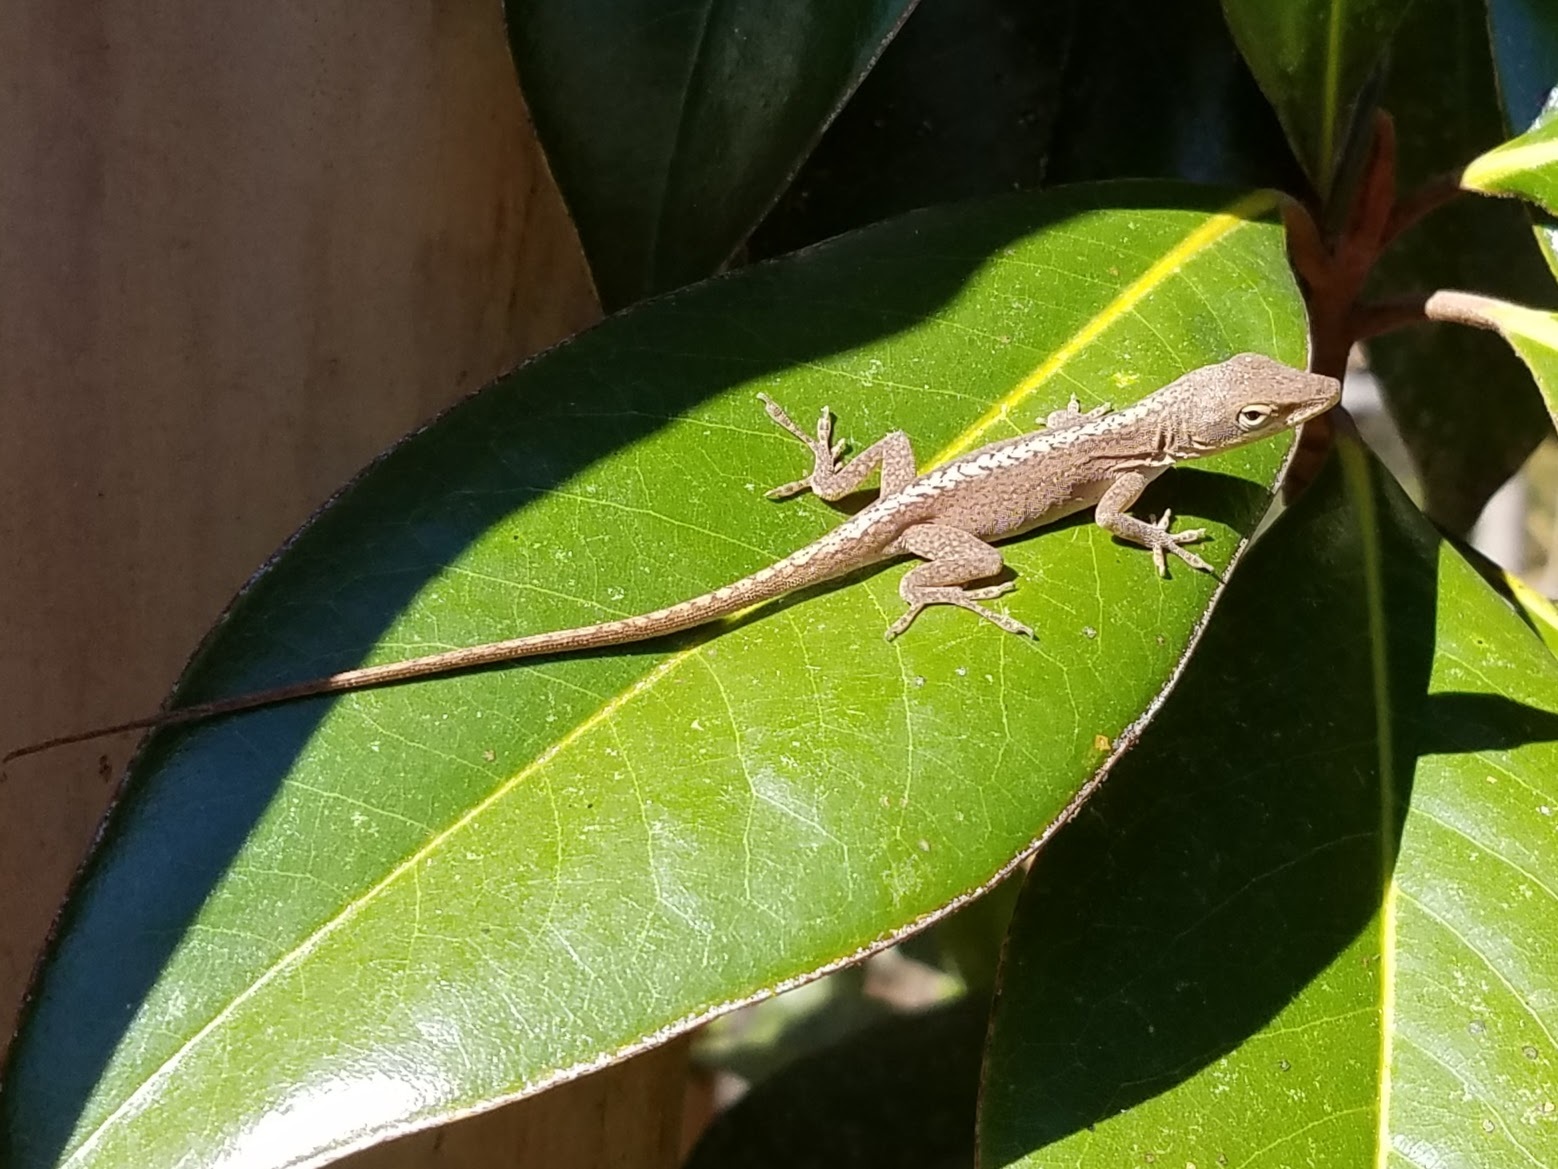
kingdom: Animalia
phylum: Chordata
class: Squamata
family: Dactyloidae
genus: Anolis
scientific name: Anolis carolinensis
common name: Green anole
